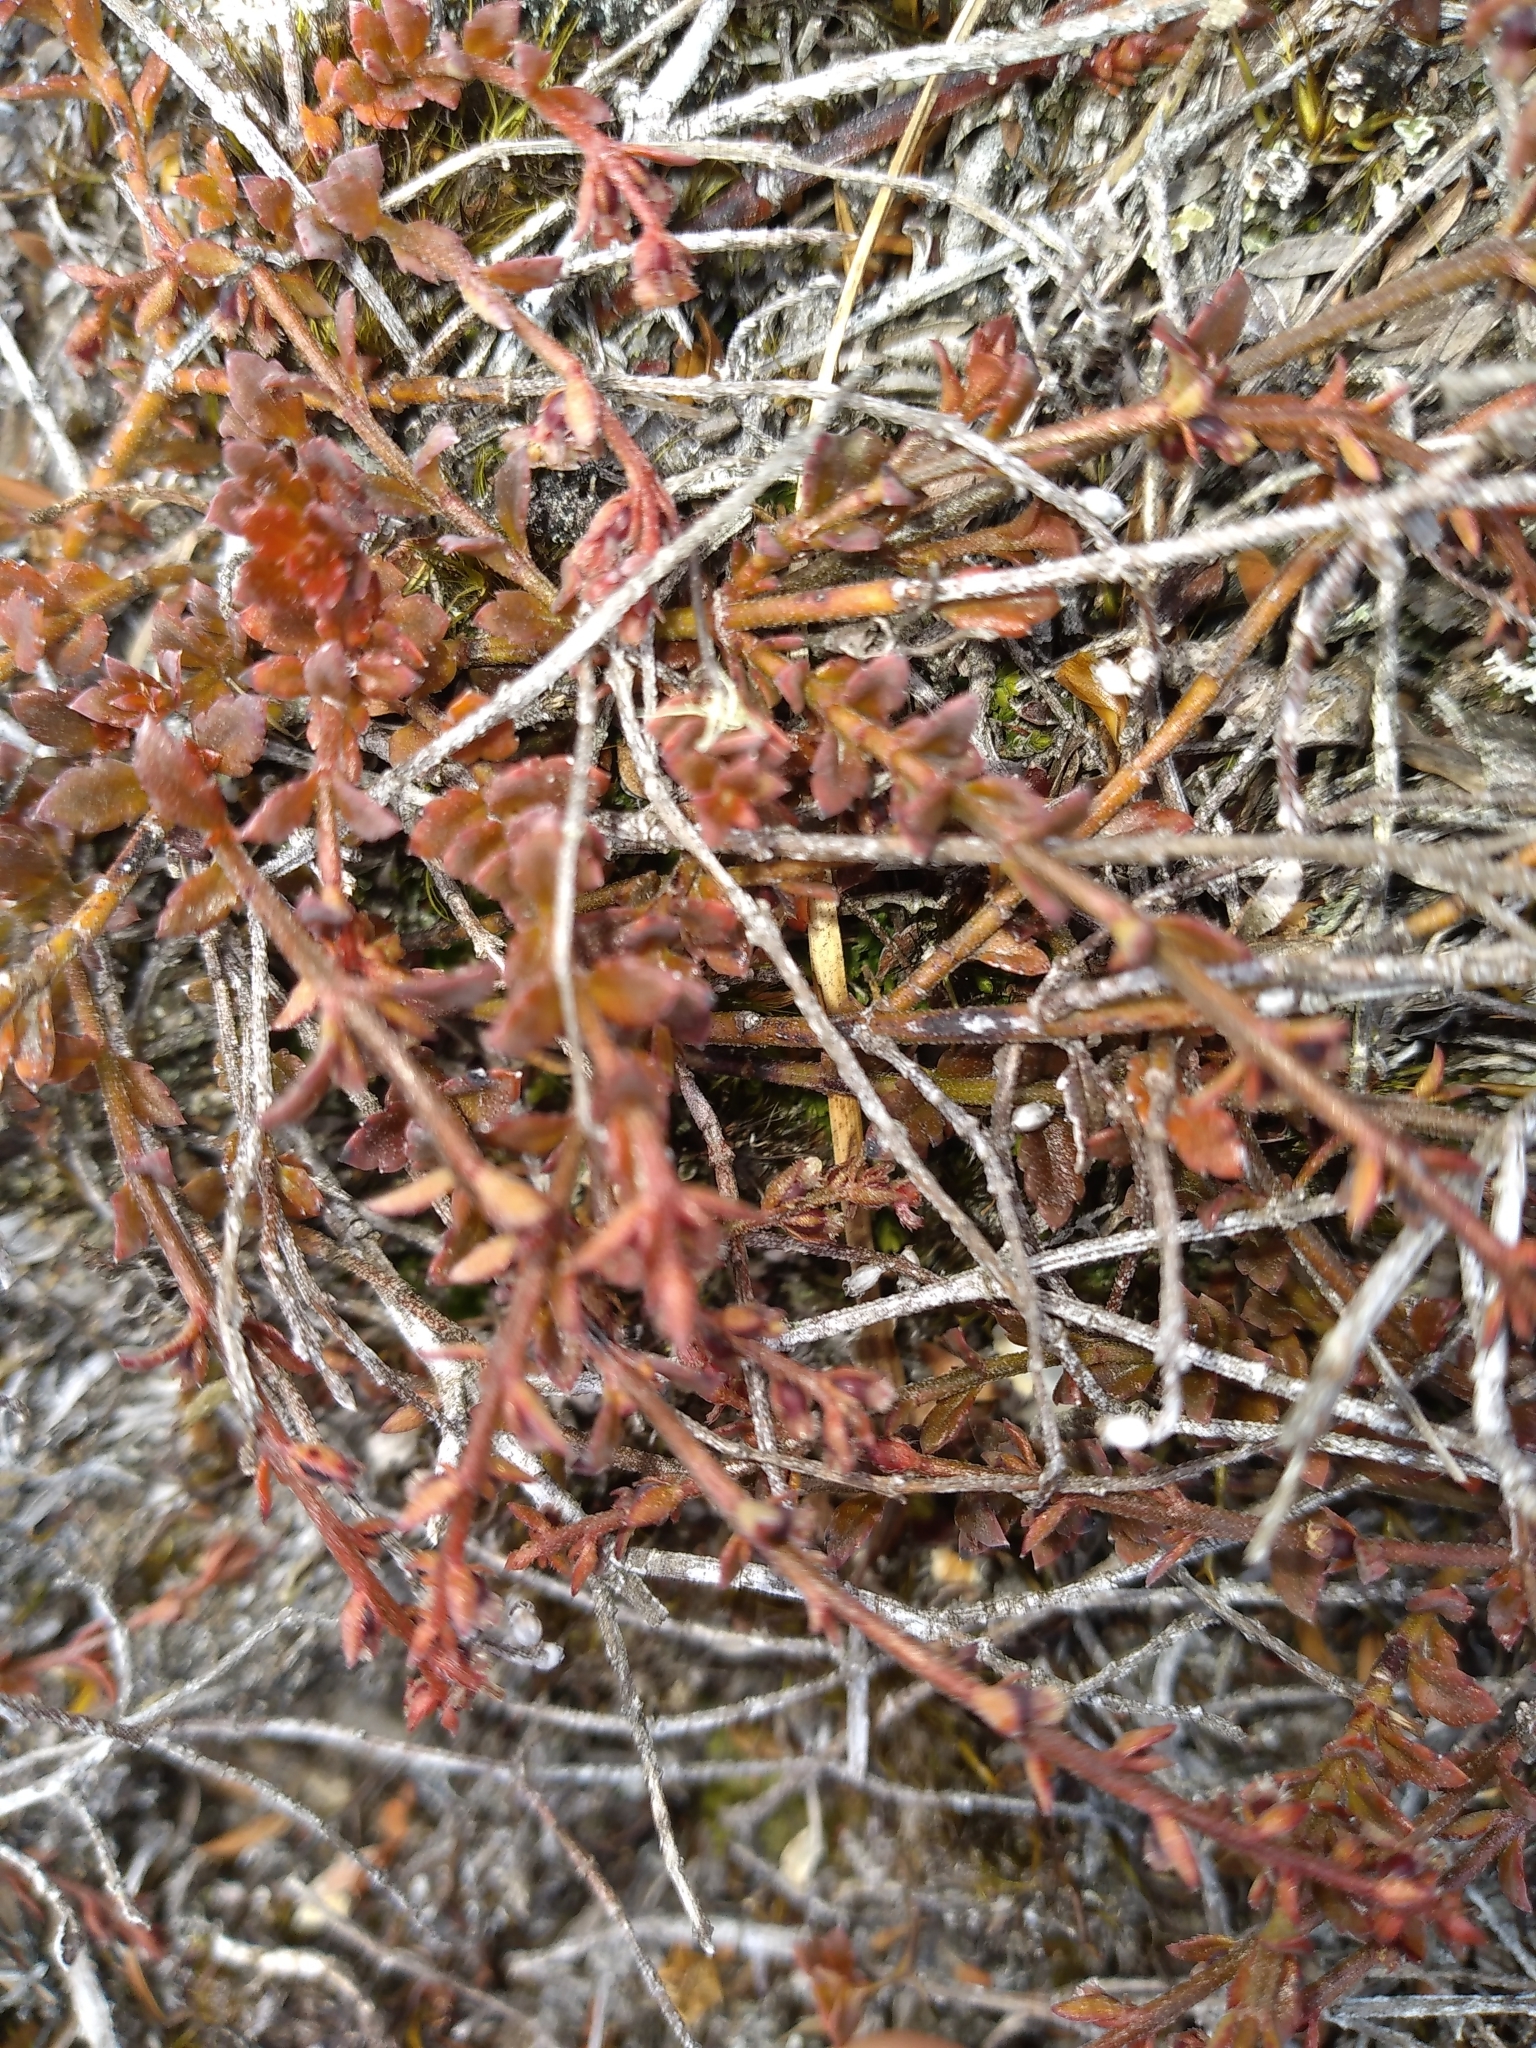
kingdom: Plantae
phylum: Tracheophyta
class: Magnoliopsida
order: Saxifragales
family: Haloragaceae
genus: Gonocarpus
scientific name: Gonocarpus incanus
